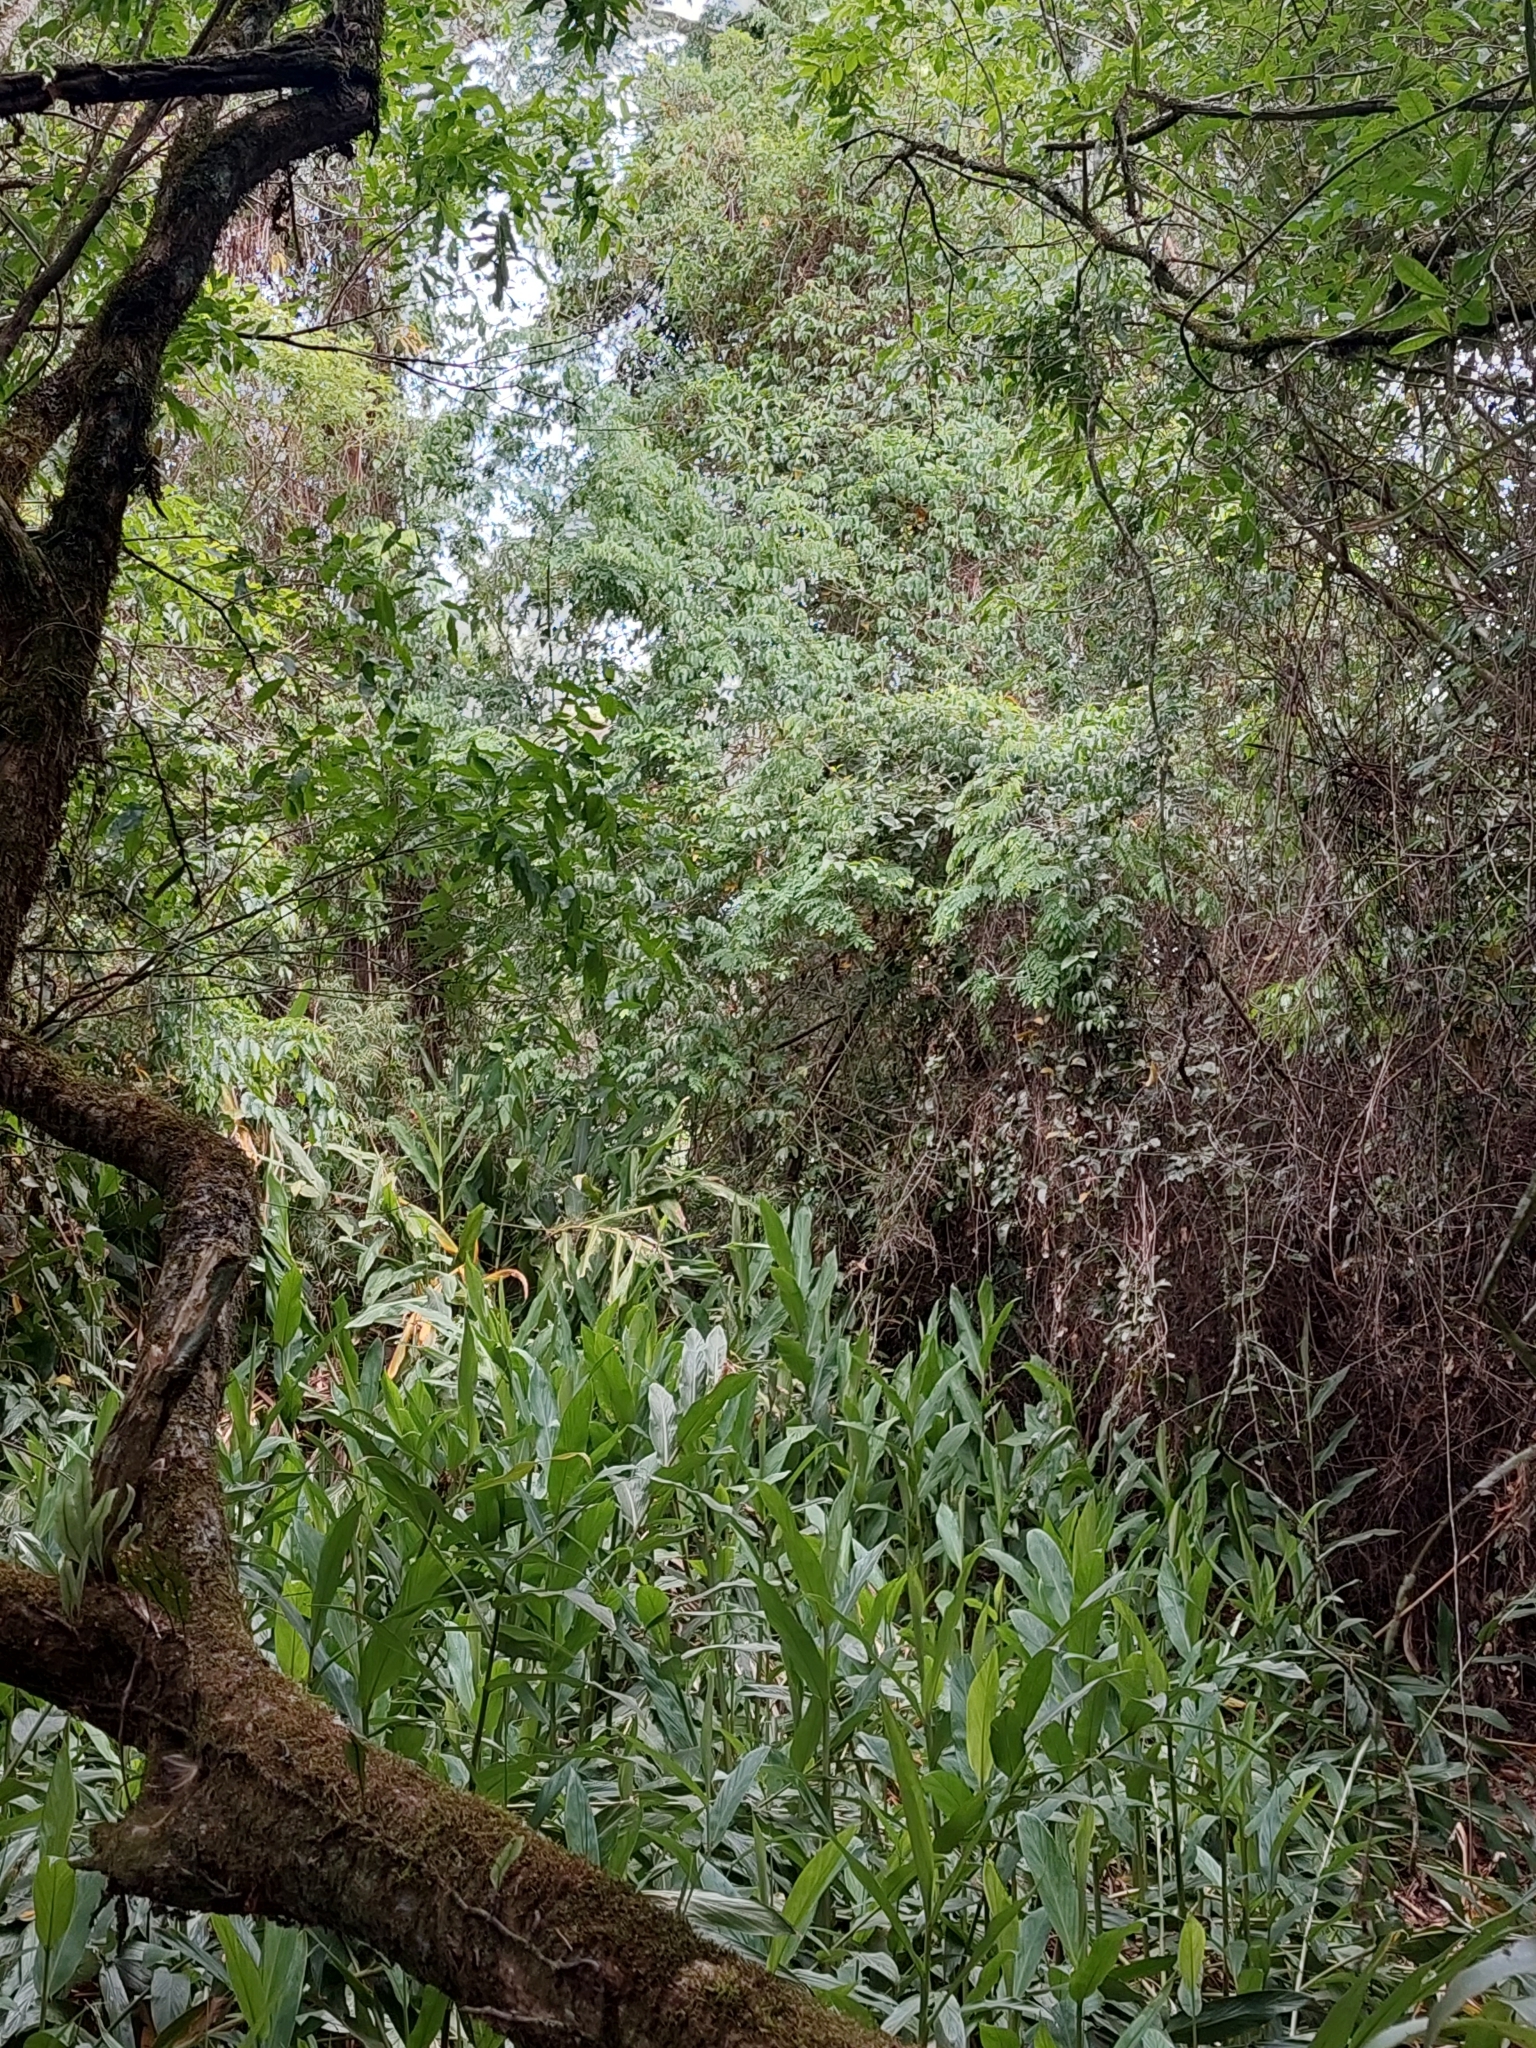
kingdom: Plantae
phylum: Tracheophyta
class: Liliopsida
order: Zingiberales
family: Zingiberaceae
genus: Hedychium
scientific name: Hedychium coronarium
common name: White garland-lily
